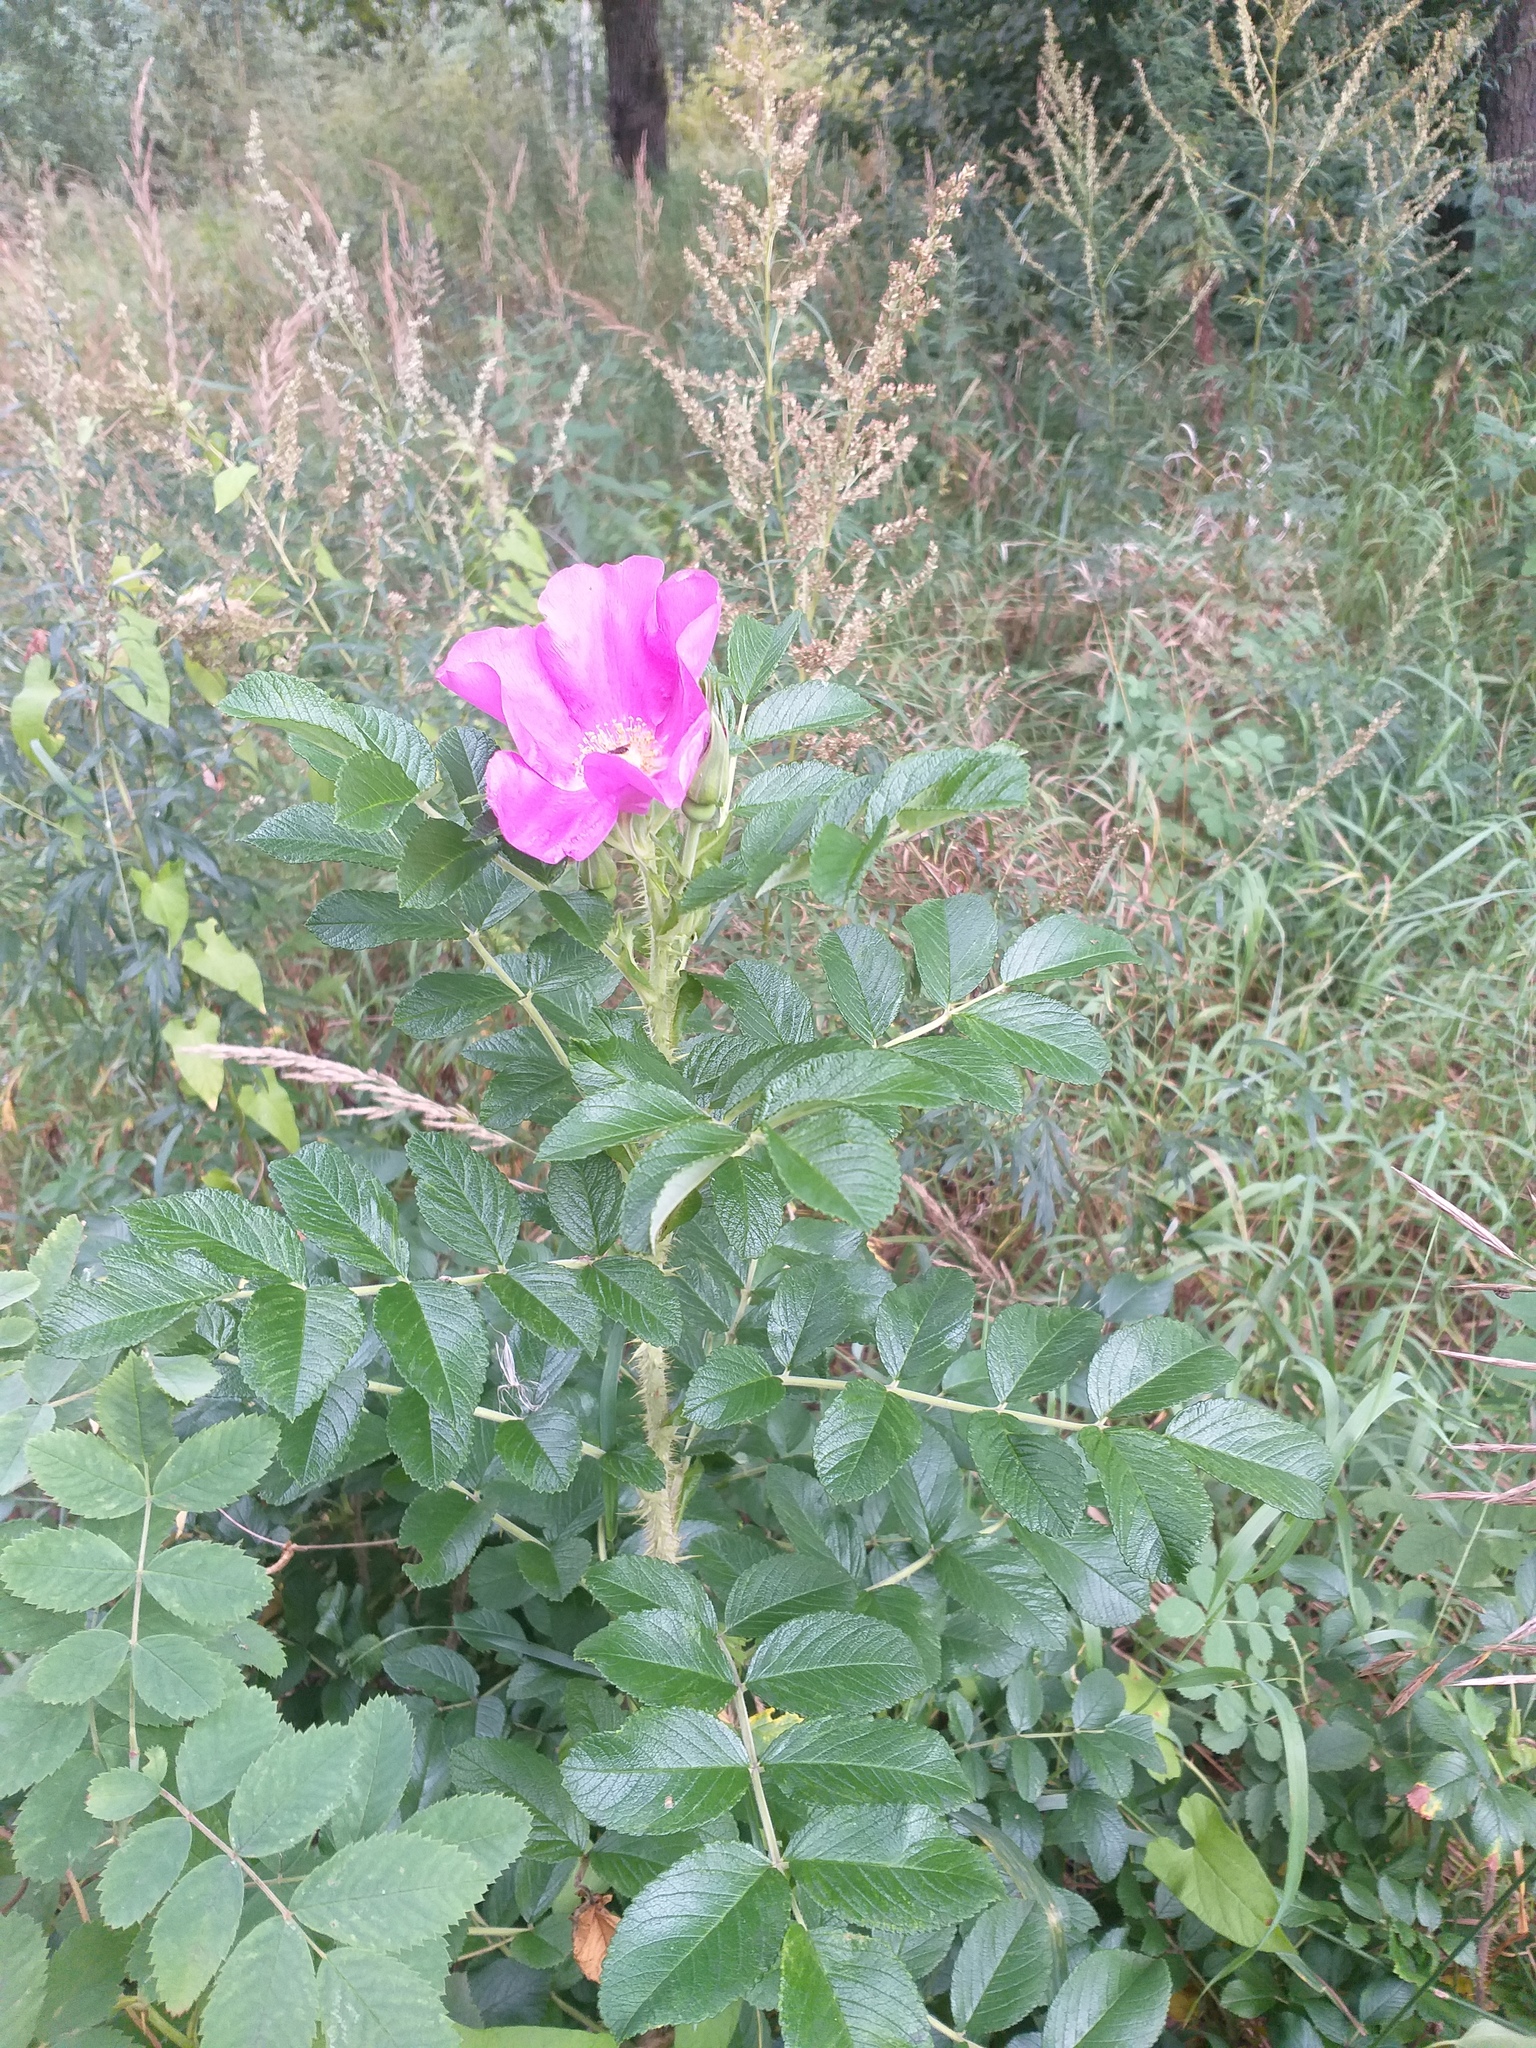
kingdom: Plantae
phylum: Tracheophyta
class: Magnoliopsida
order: Rosales
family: Rosaceae
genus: Rosa
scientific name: Rosa rugosa
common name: Japanese rose
